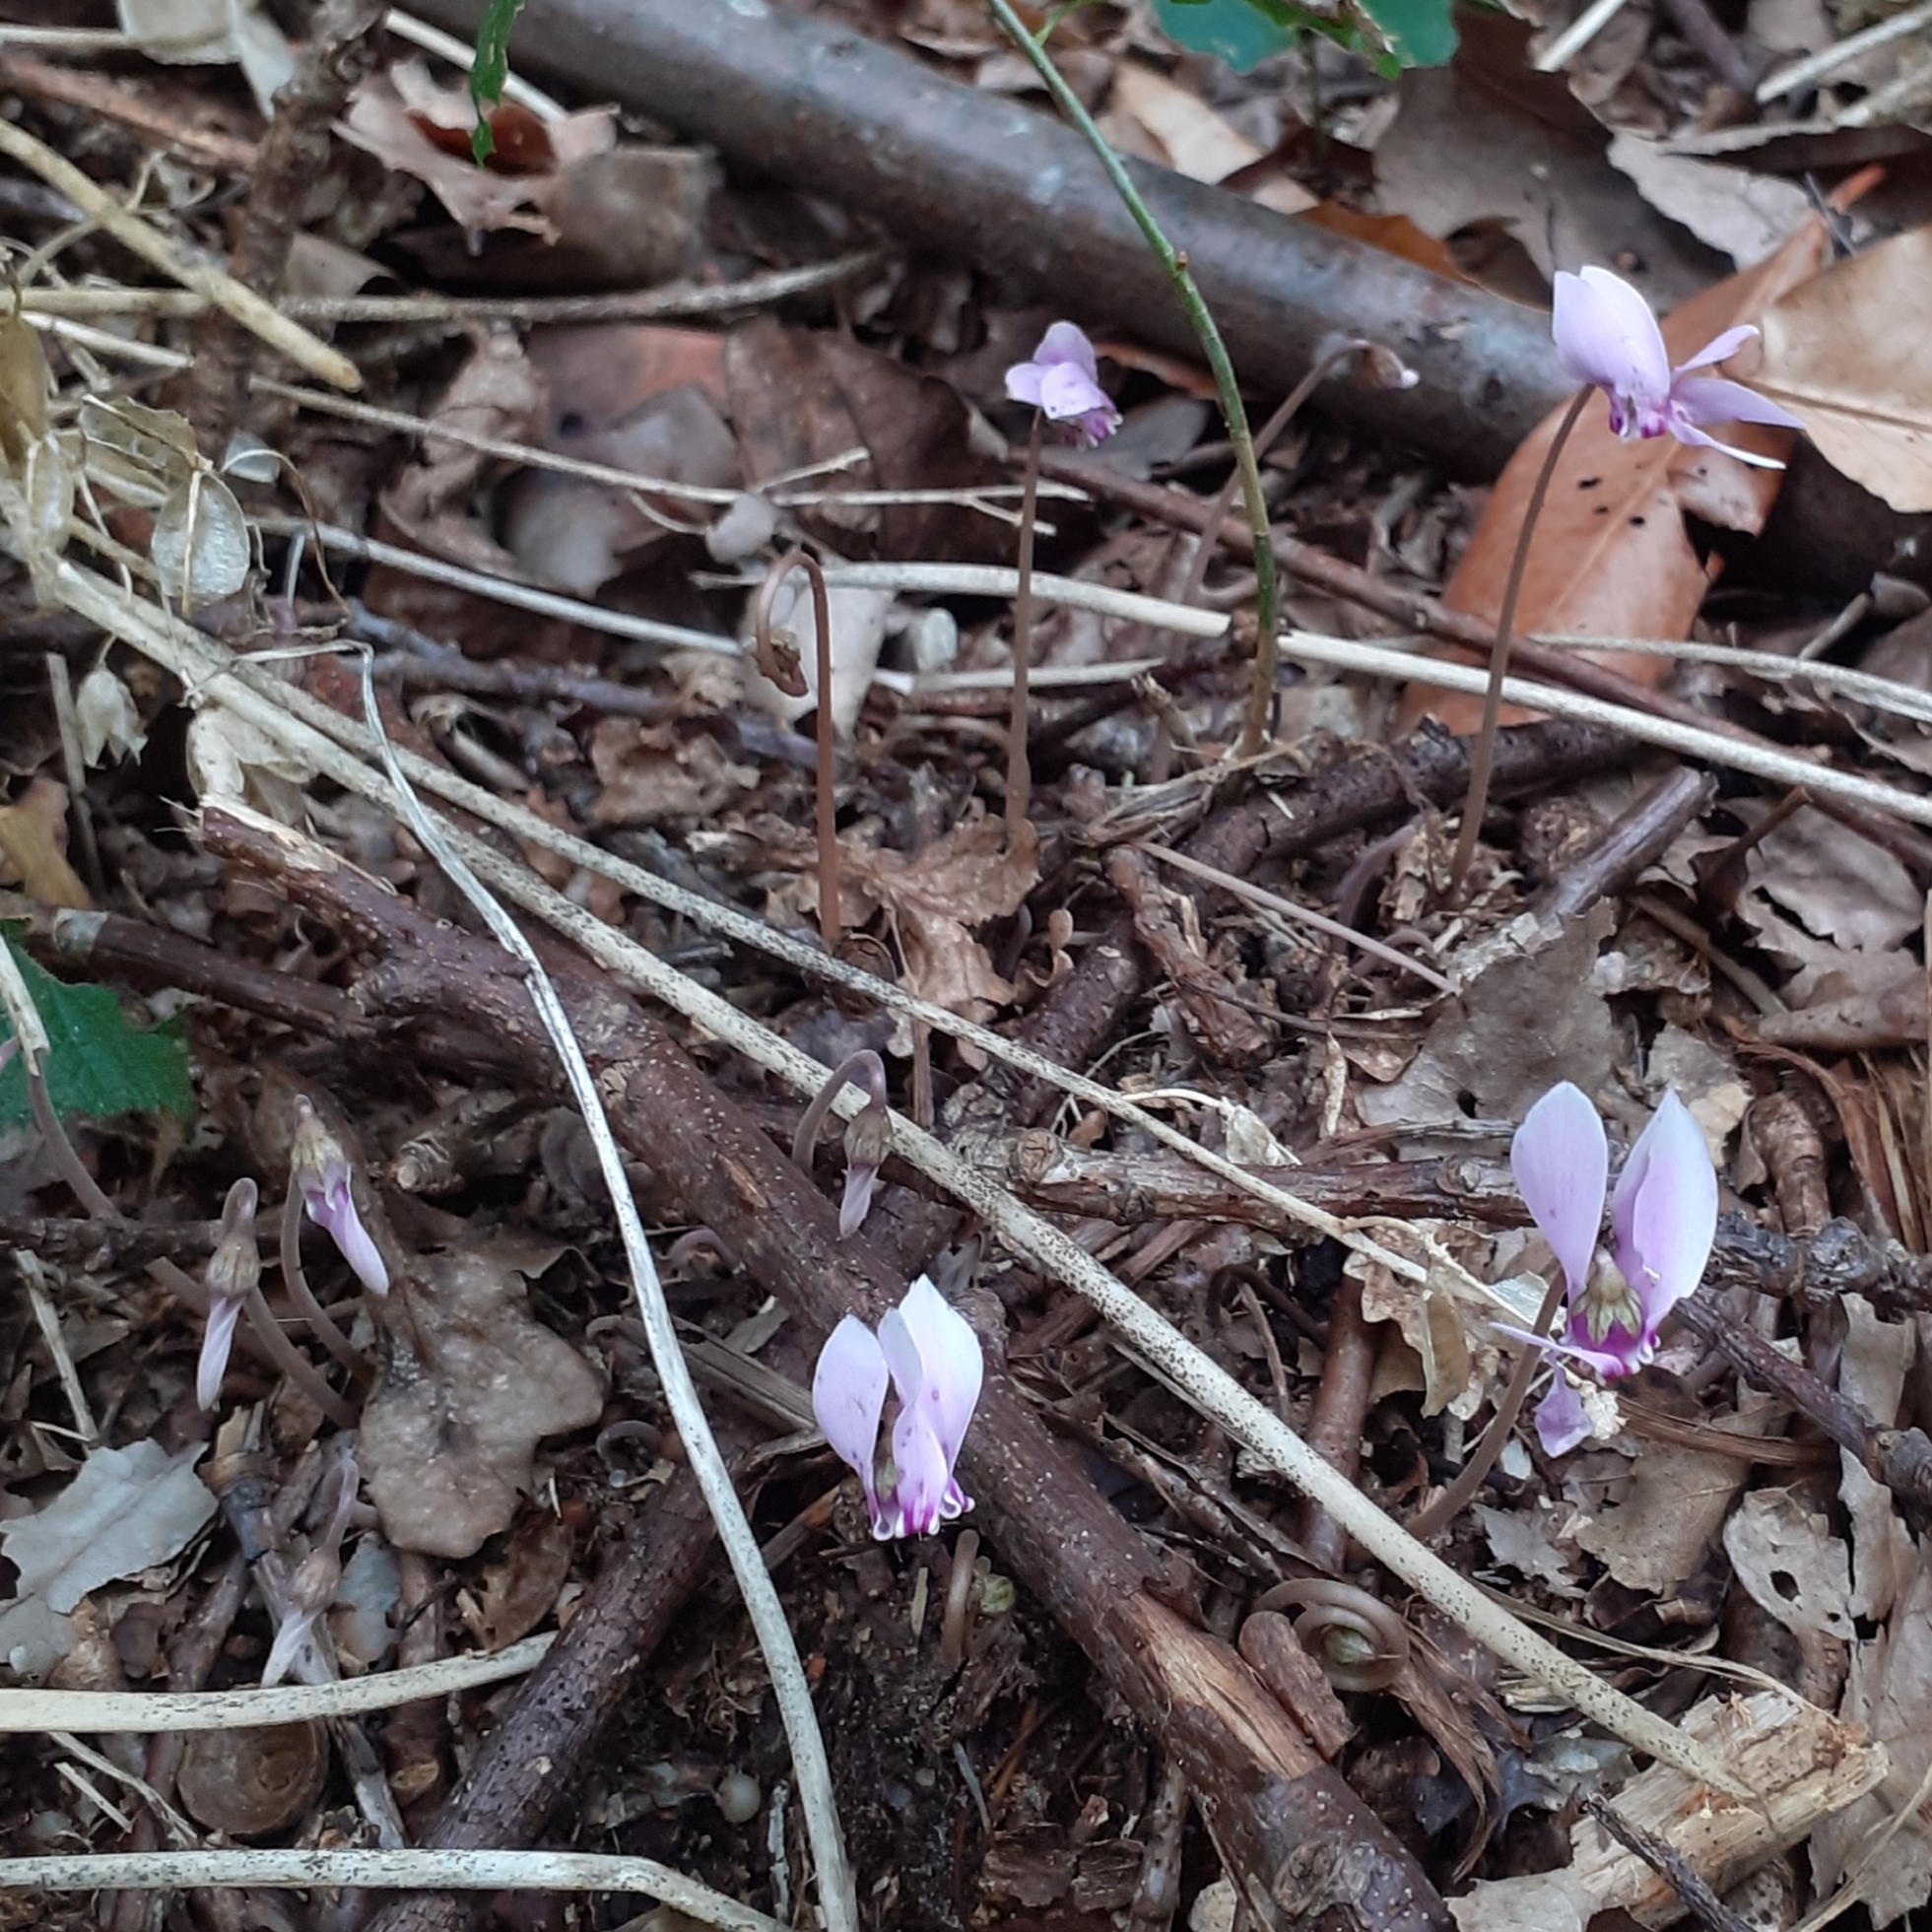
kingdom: Plantae
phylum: Tracheophyta
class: Magnoliopsida
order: Ericales
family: Primulaceae
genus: Cyclamen
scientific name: Cyclamen hederifolium
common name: Sowbread
